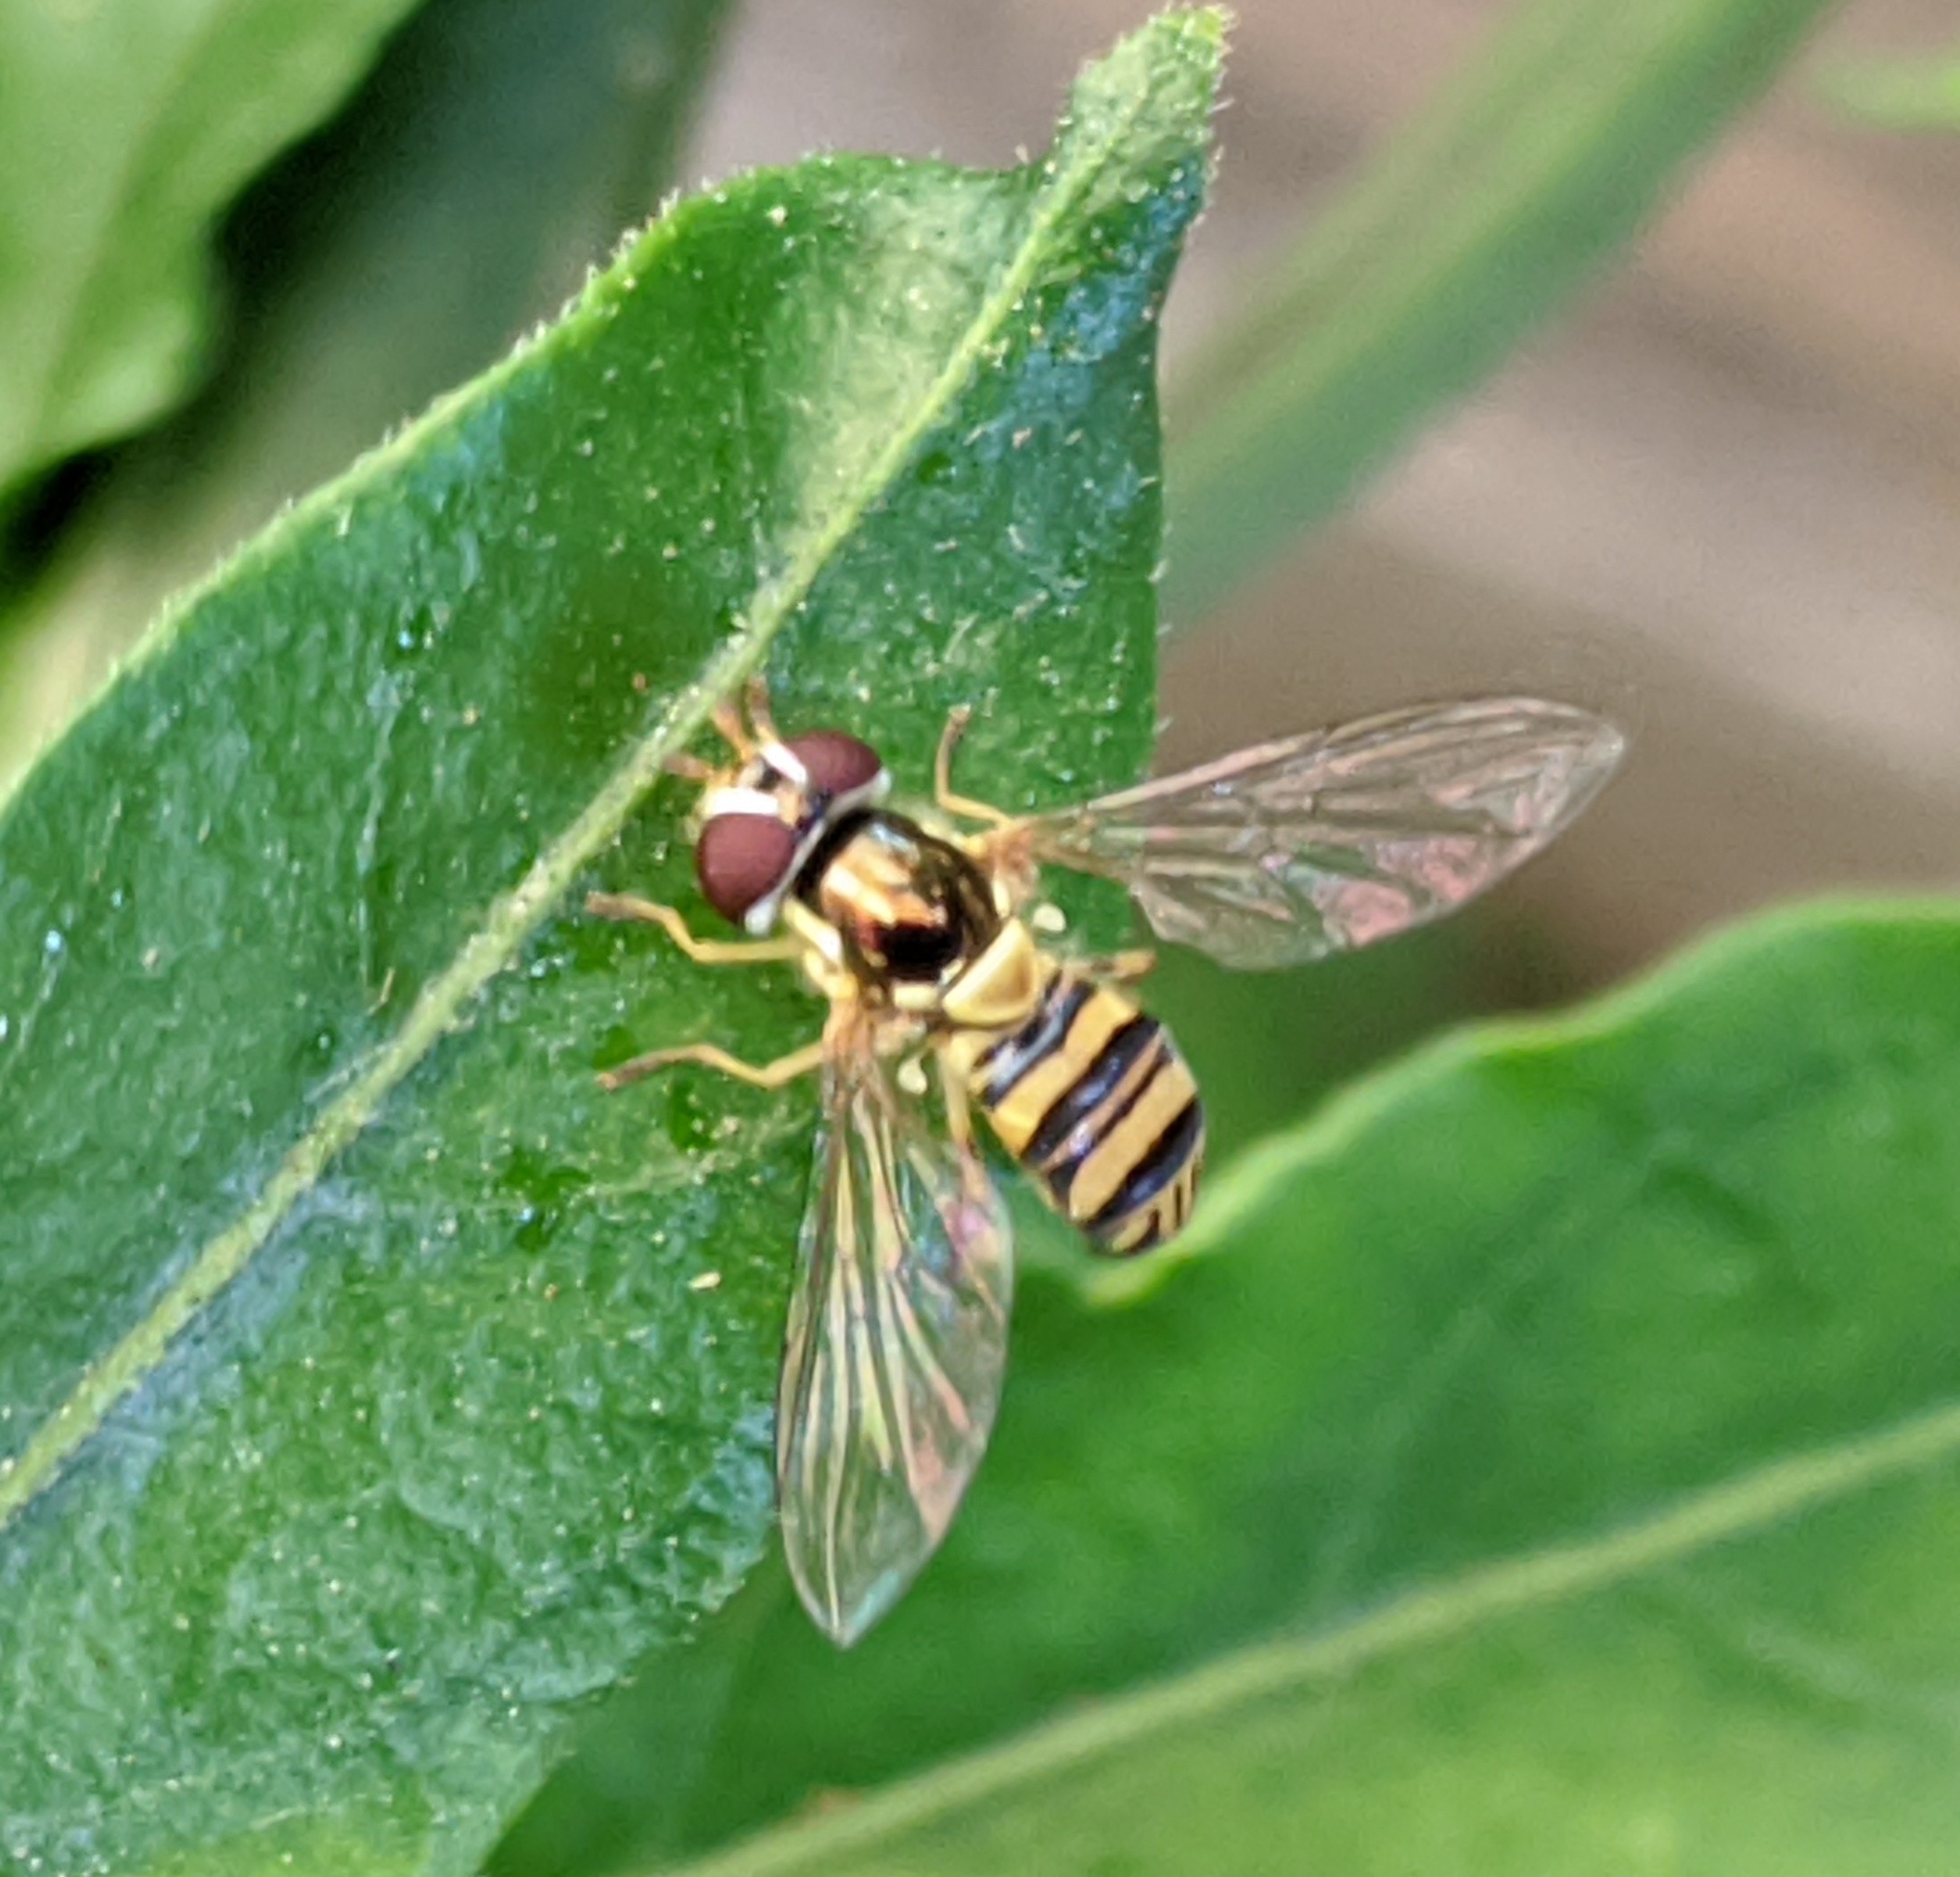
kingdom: Animalia
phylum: Arthropoda
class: Insecta
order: Diptera
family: Syrphidae
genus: Allograpta
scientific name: Allograpta obliqua
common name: Common oblique syrphid
